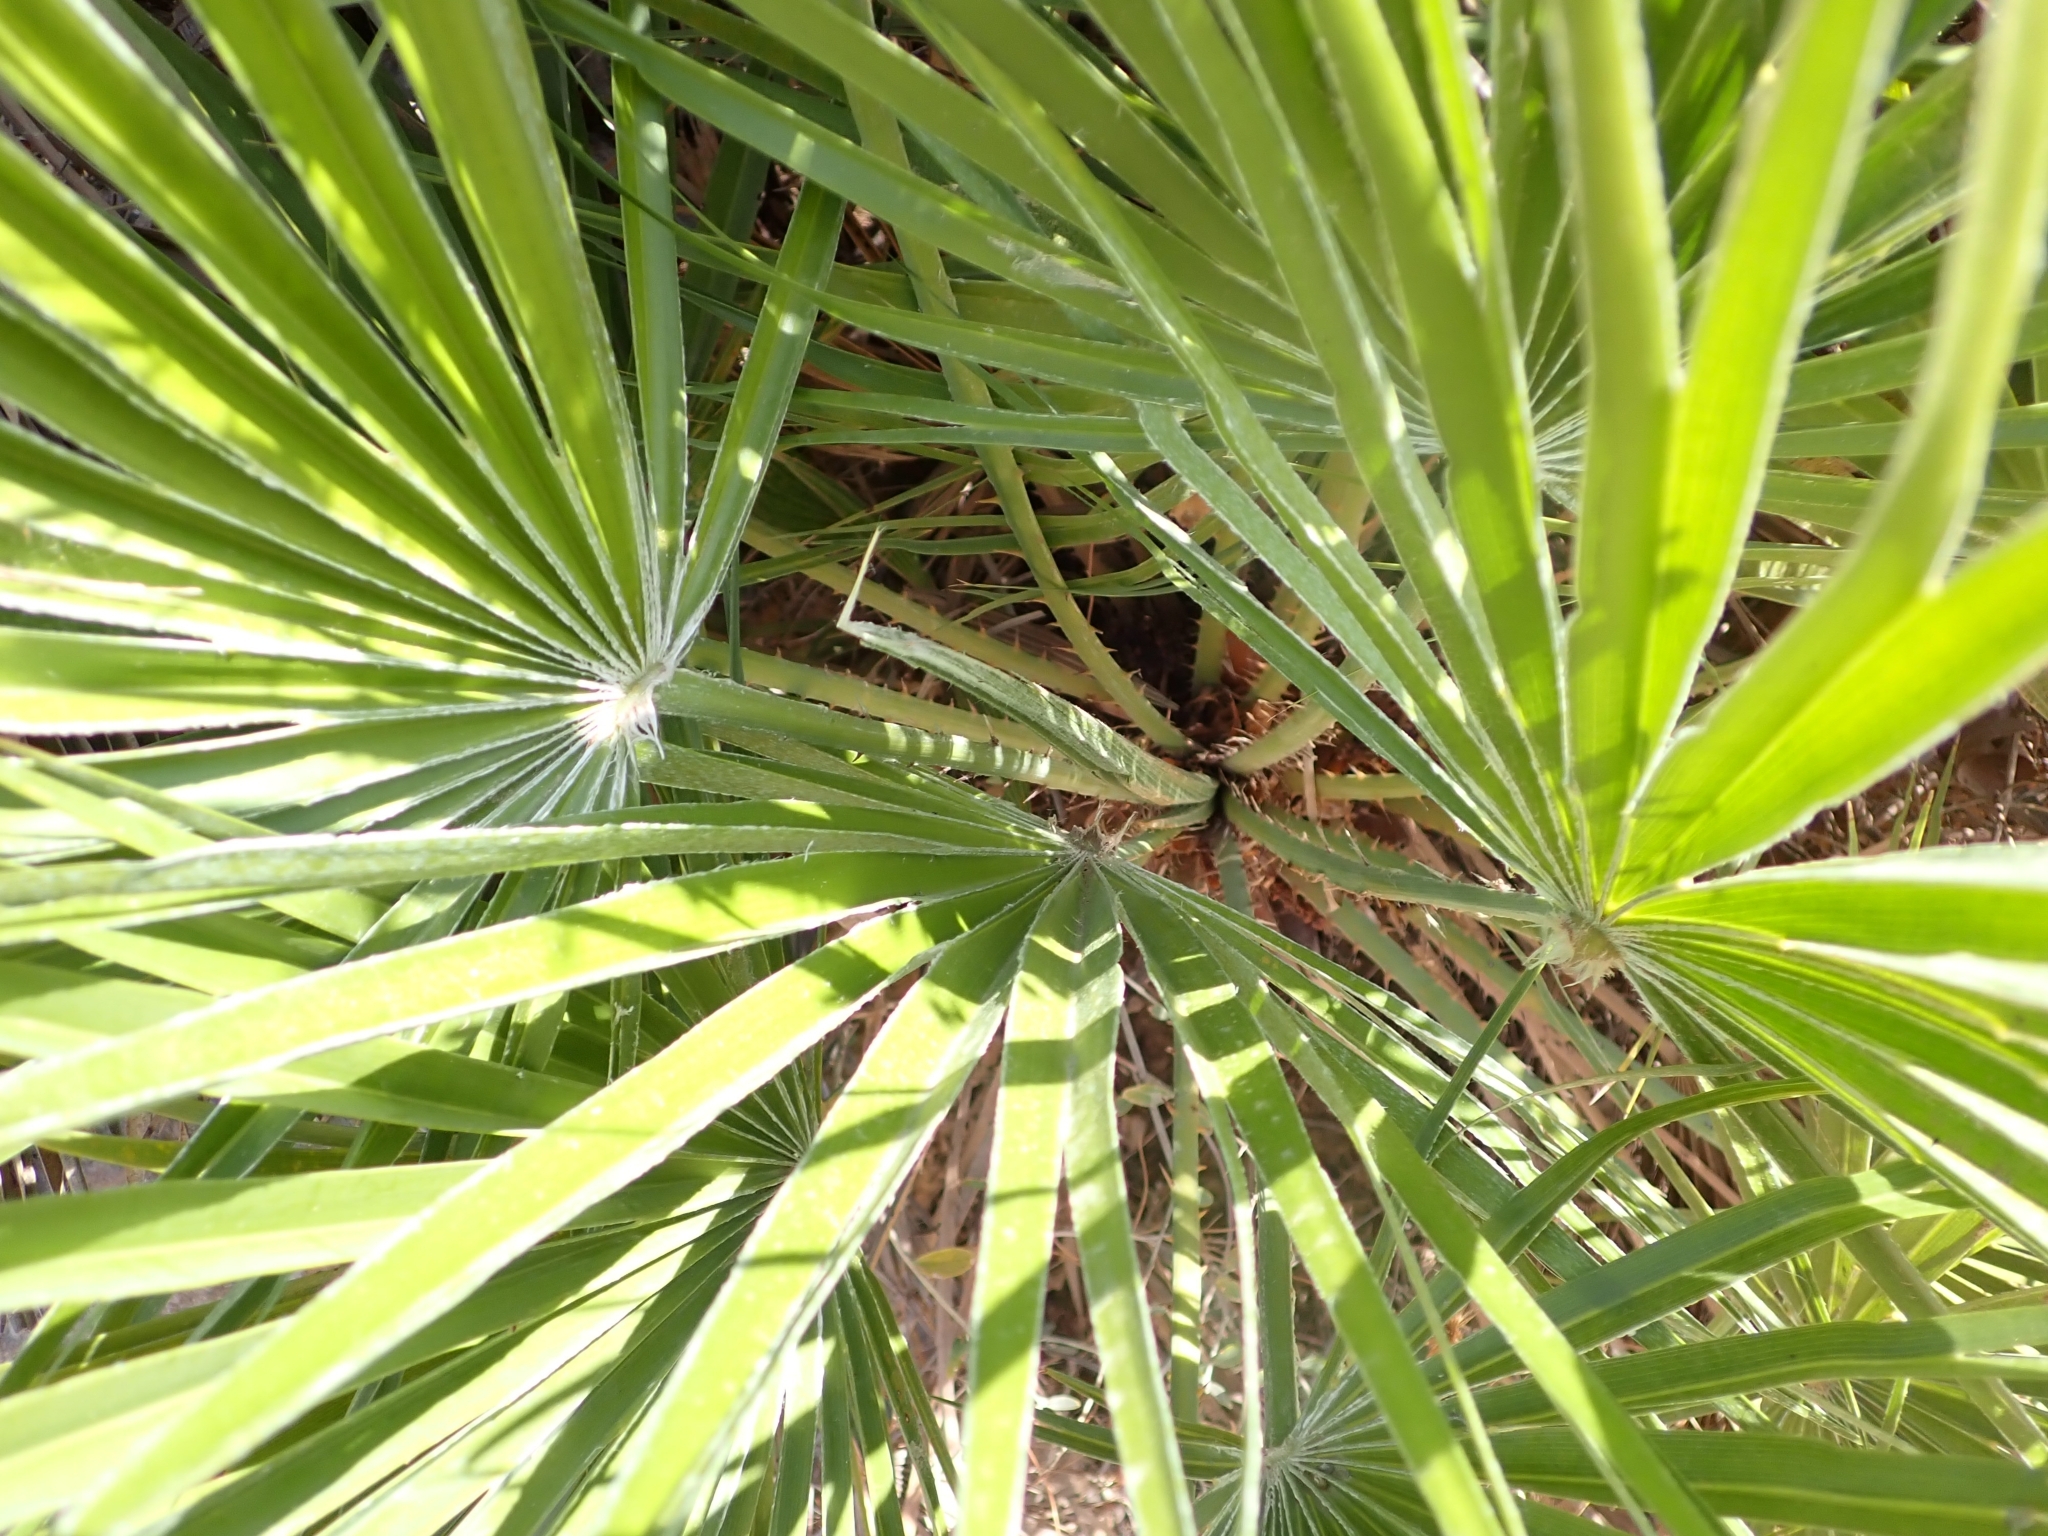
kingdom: Plantae
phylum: Tracheophyta
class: Liliopsida
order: Arecales
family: Arecaceae
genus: Chamaerops
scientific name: Chamaerops humilis
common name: Dwarf fan palm
